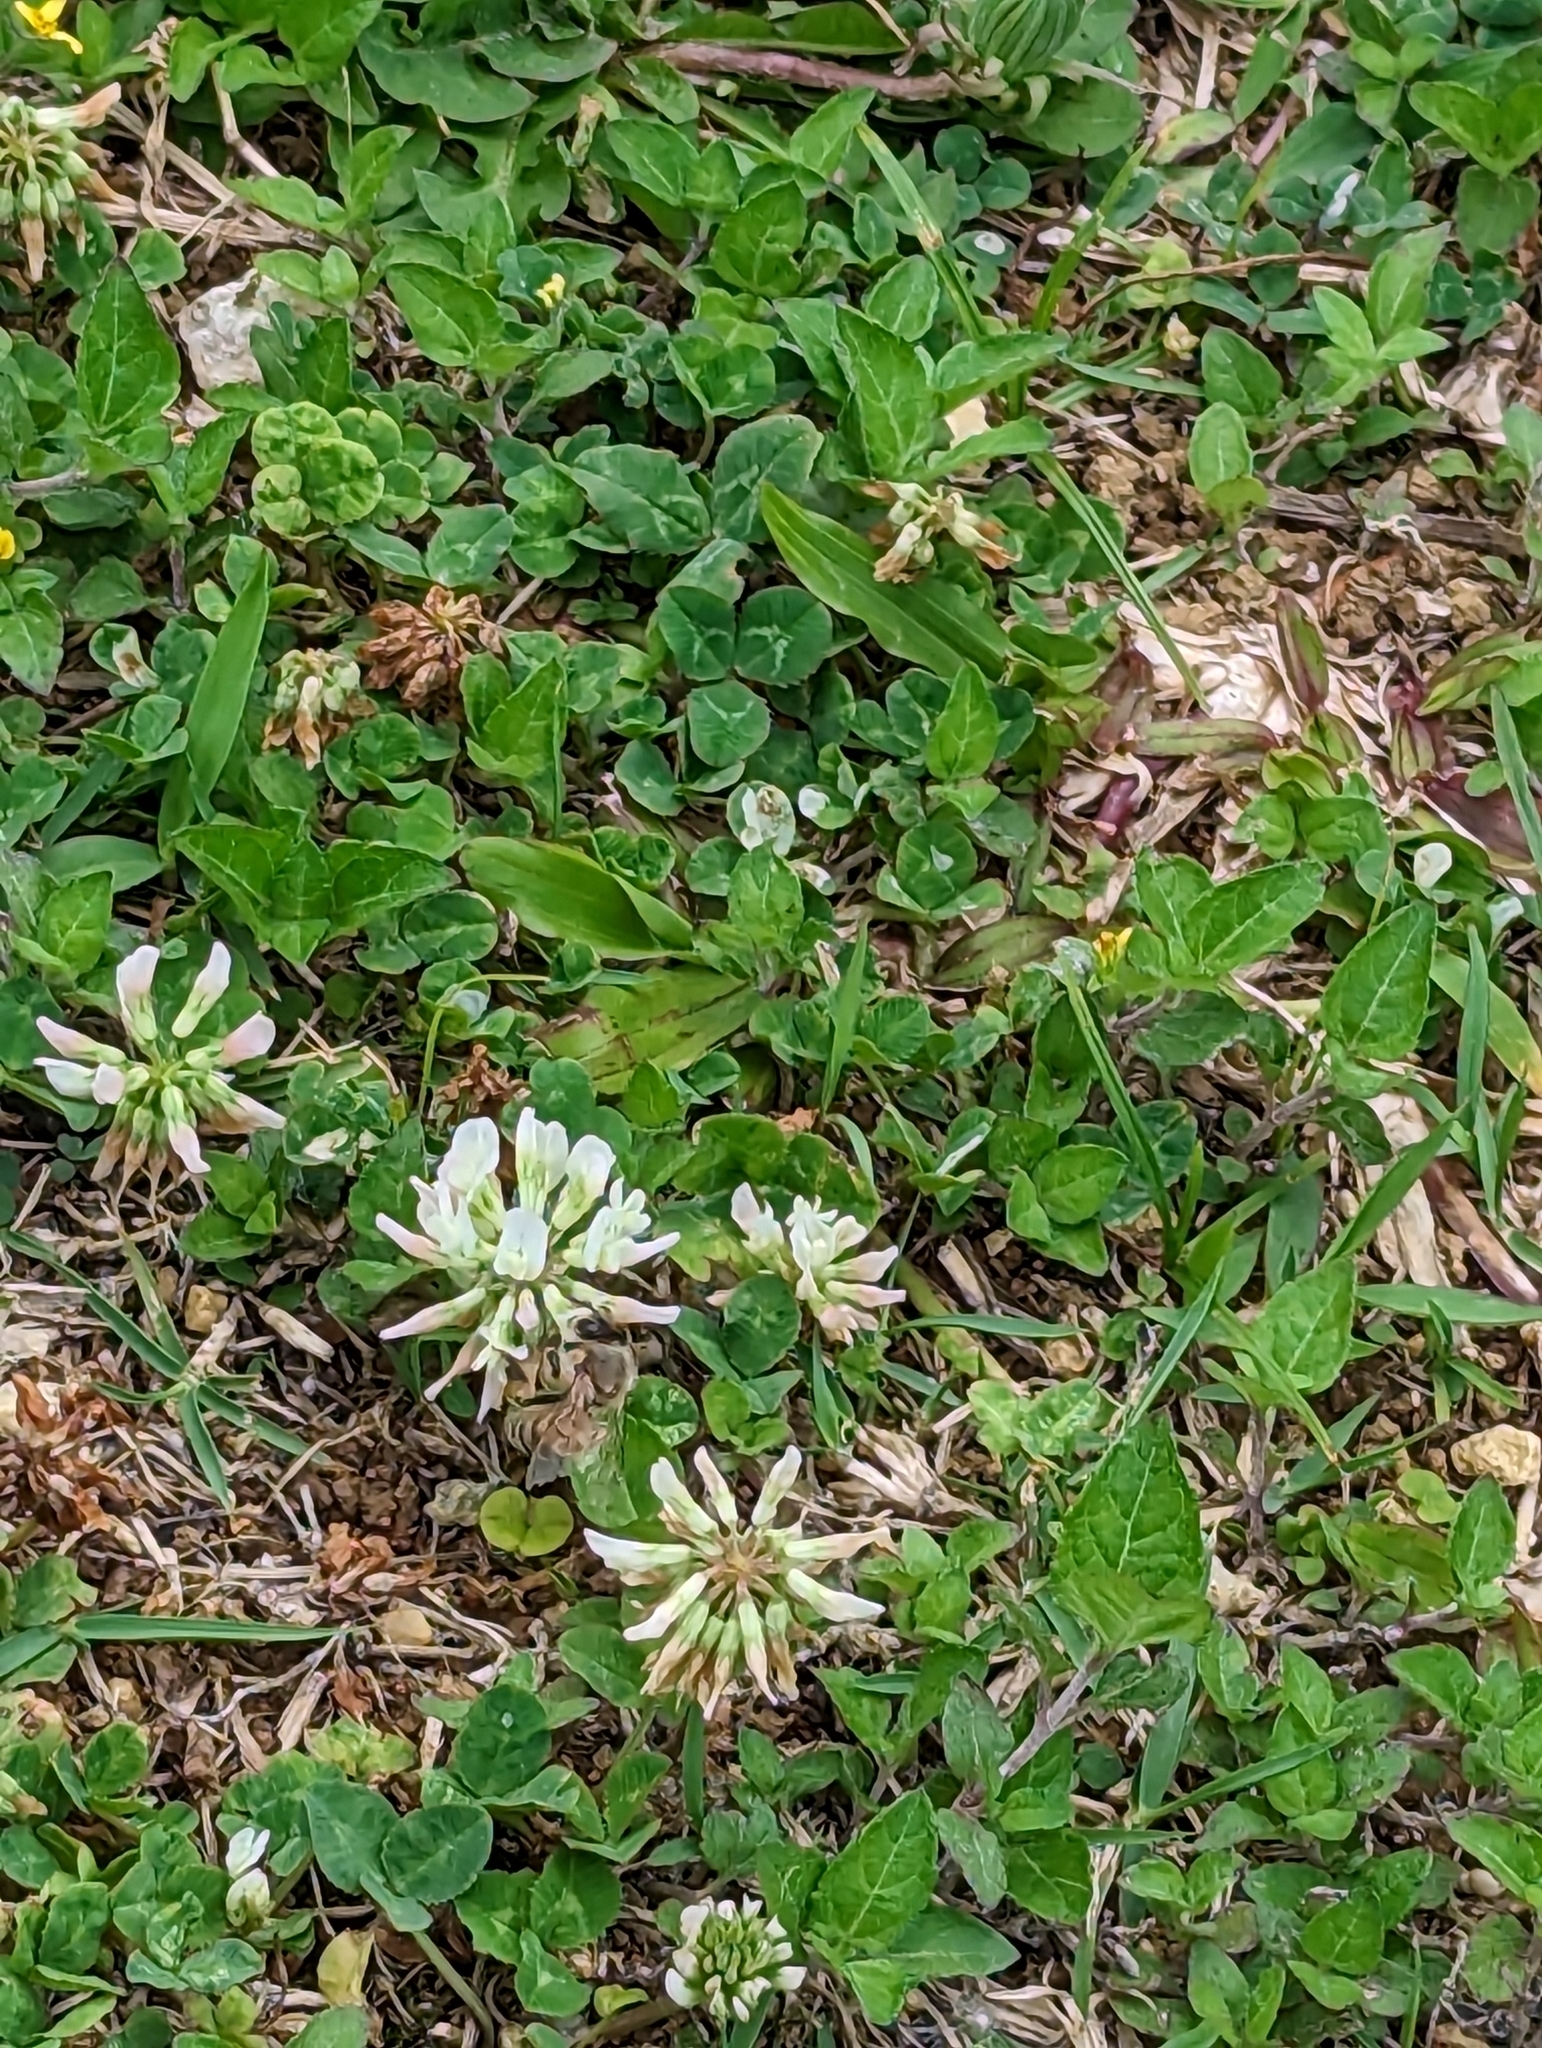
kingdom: Animalia
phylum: Arthropoda
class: Insecta
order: Hymenoptera
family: Apidae
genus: Apis
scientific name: Apis mellifera
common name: Honey bee
